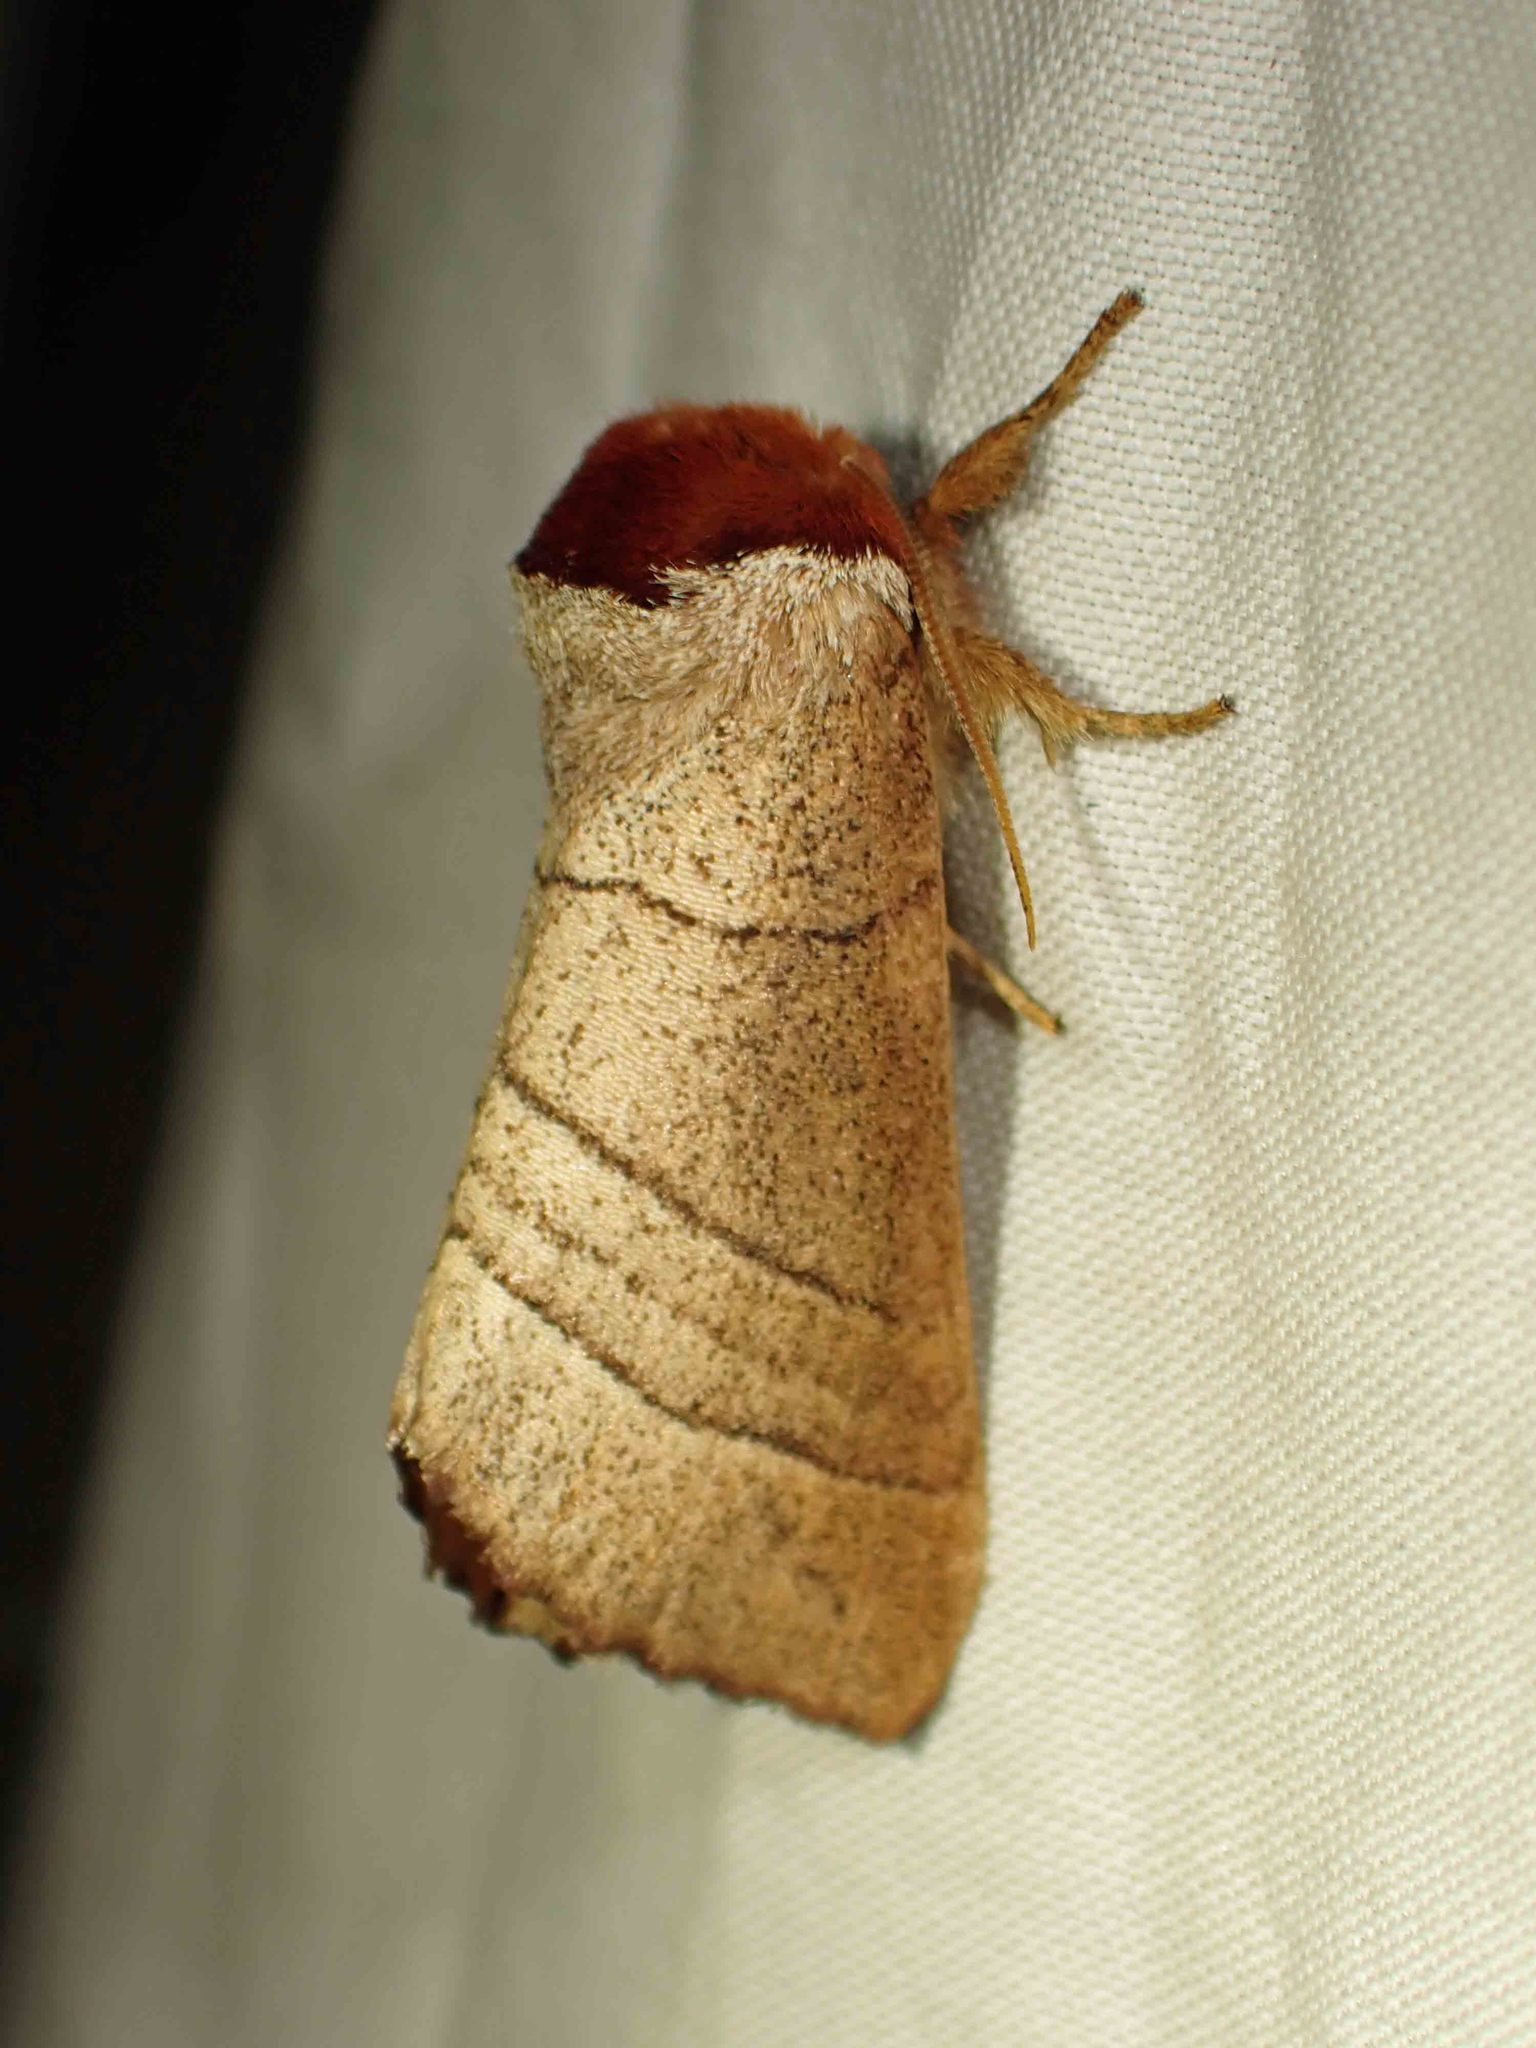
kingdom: Animalia
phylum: Arthropoda
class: Insecta
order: Lepidoptera
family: Notodontidae
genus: Datana
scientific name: Datana ministra
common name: Yellow-necked caterpillar moth
